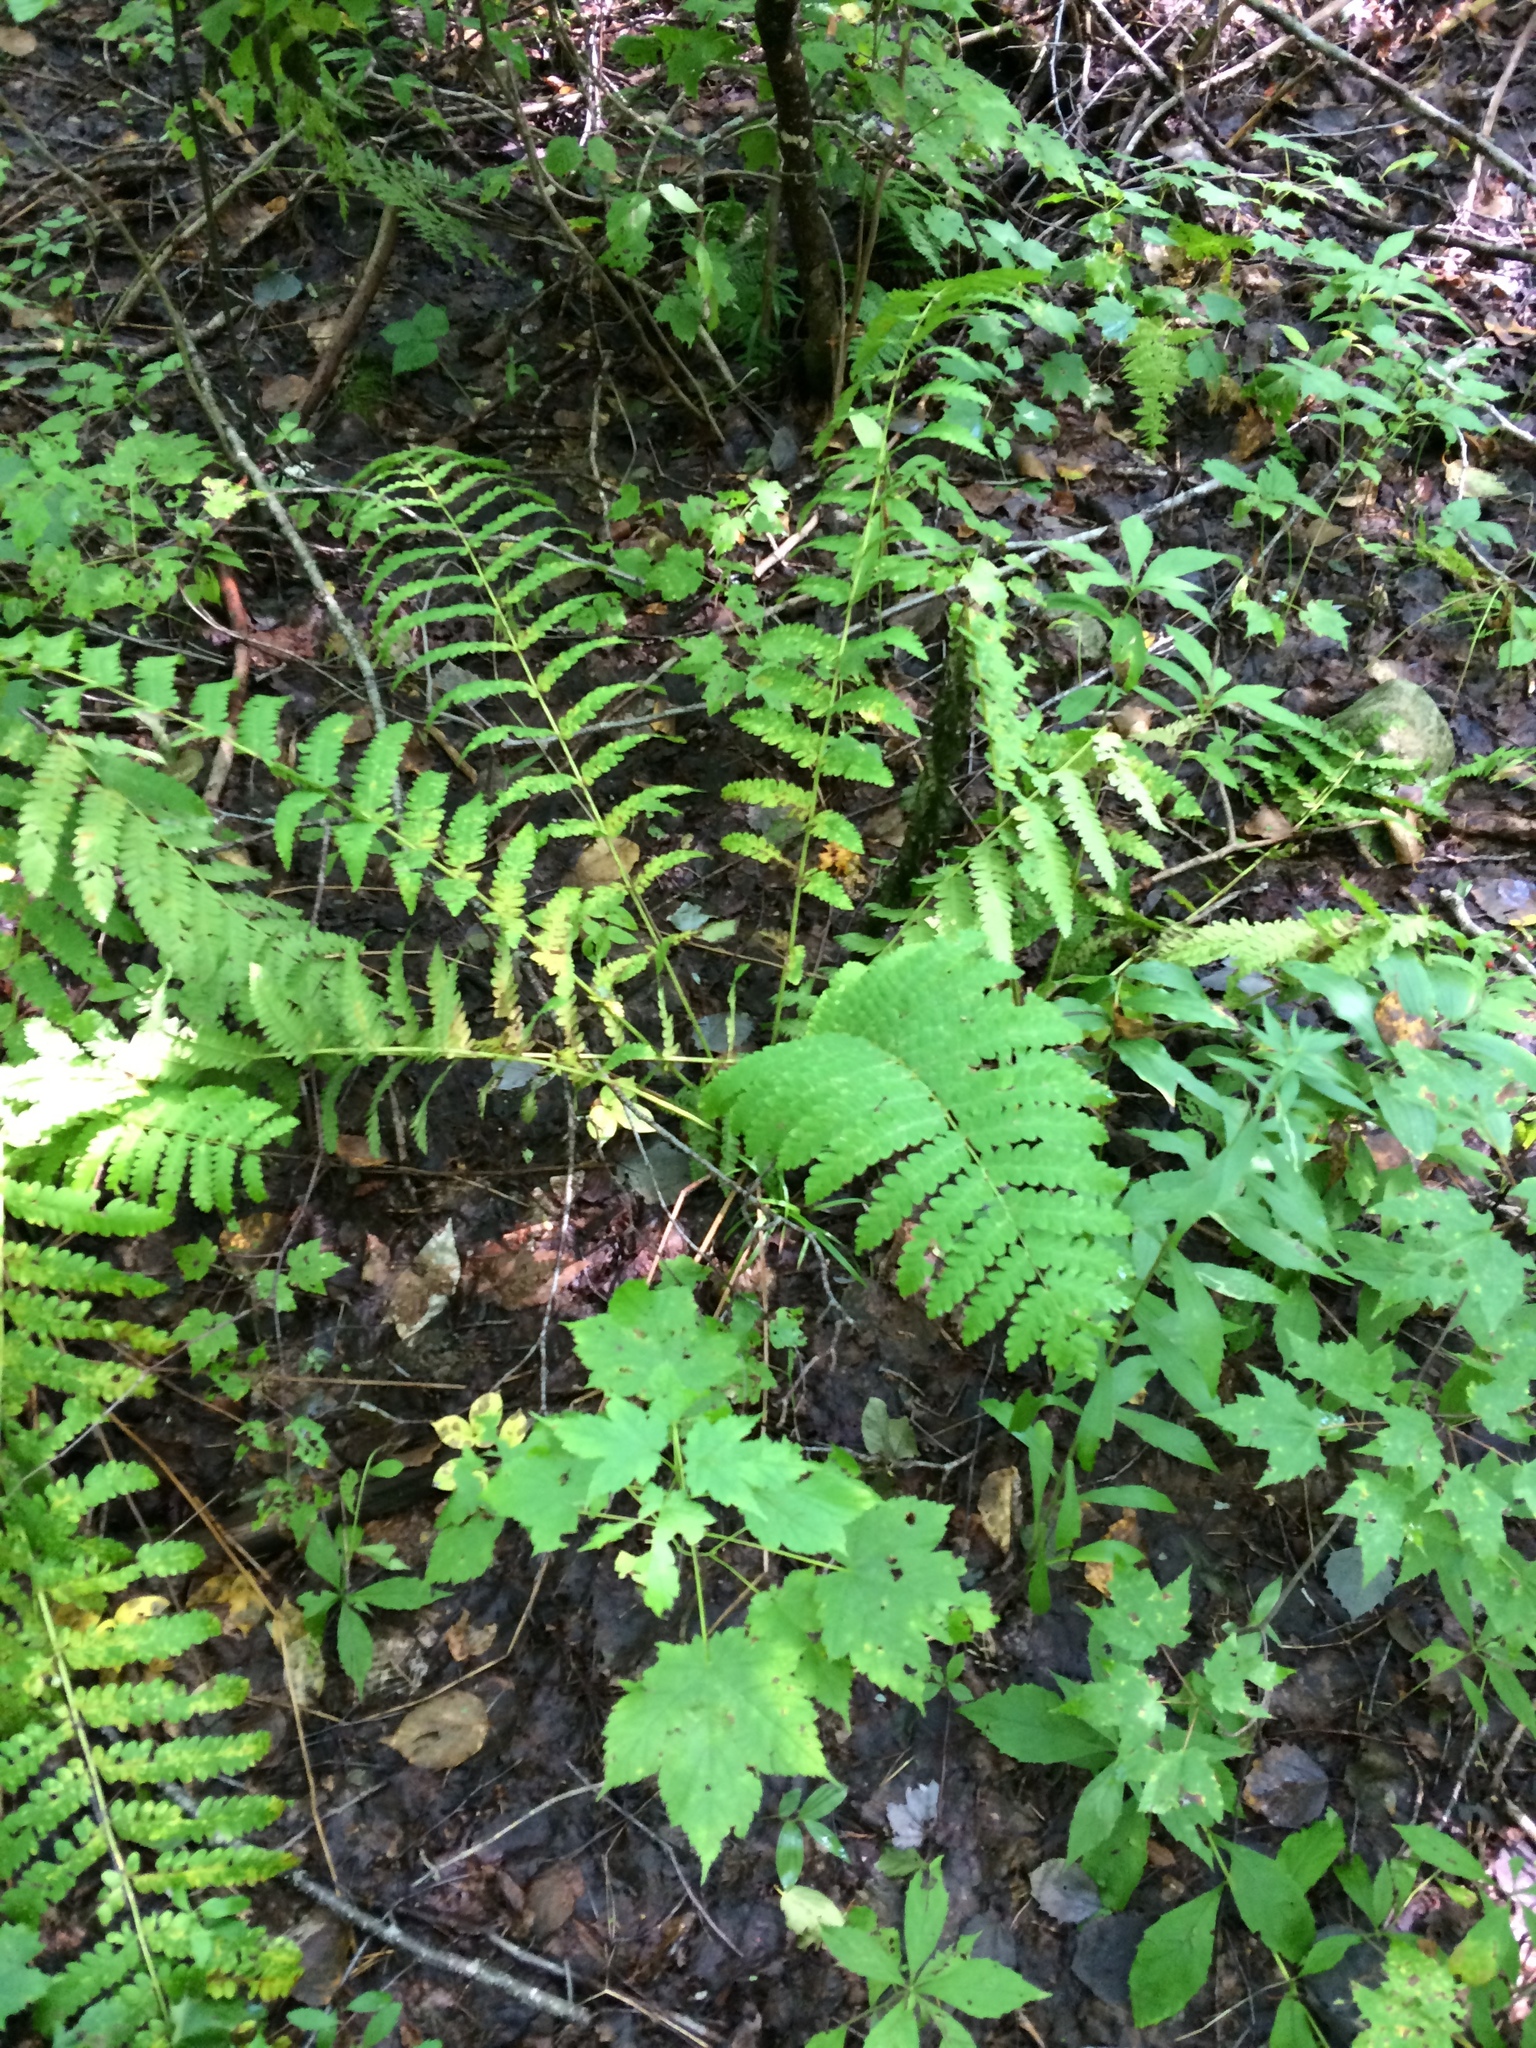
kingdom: Plantae
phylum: Tracheophyta
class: Polypodiopsida
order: Osmundales
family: Osmundaceae
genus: Claytosmunda
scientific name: Claytosmunda claytoniana
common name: Clayton's fern
